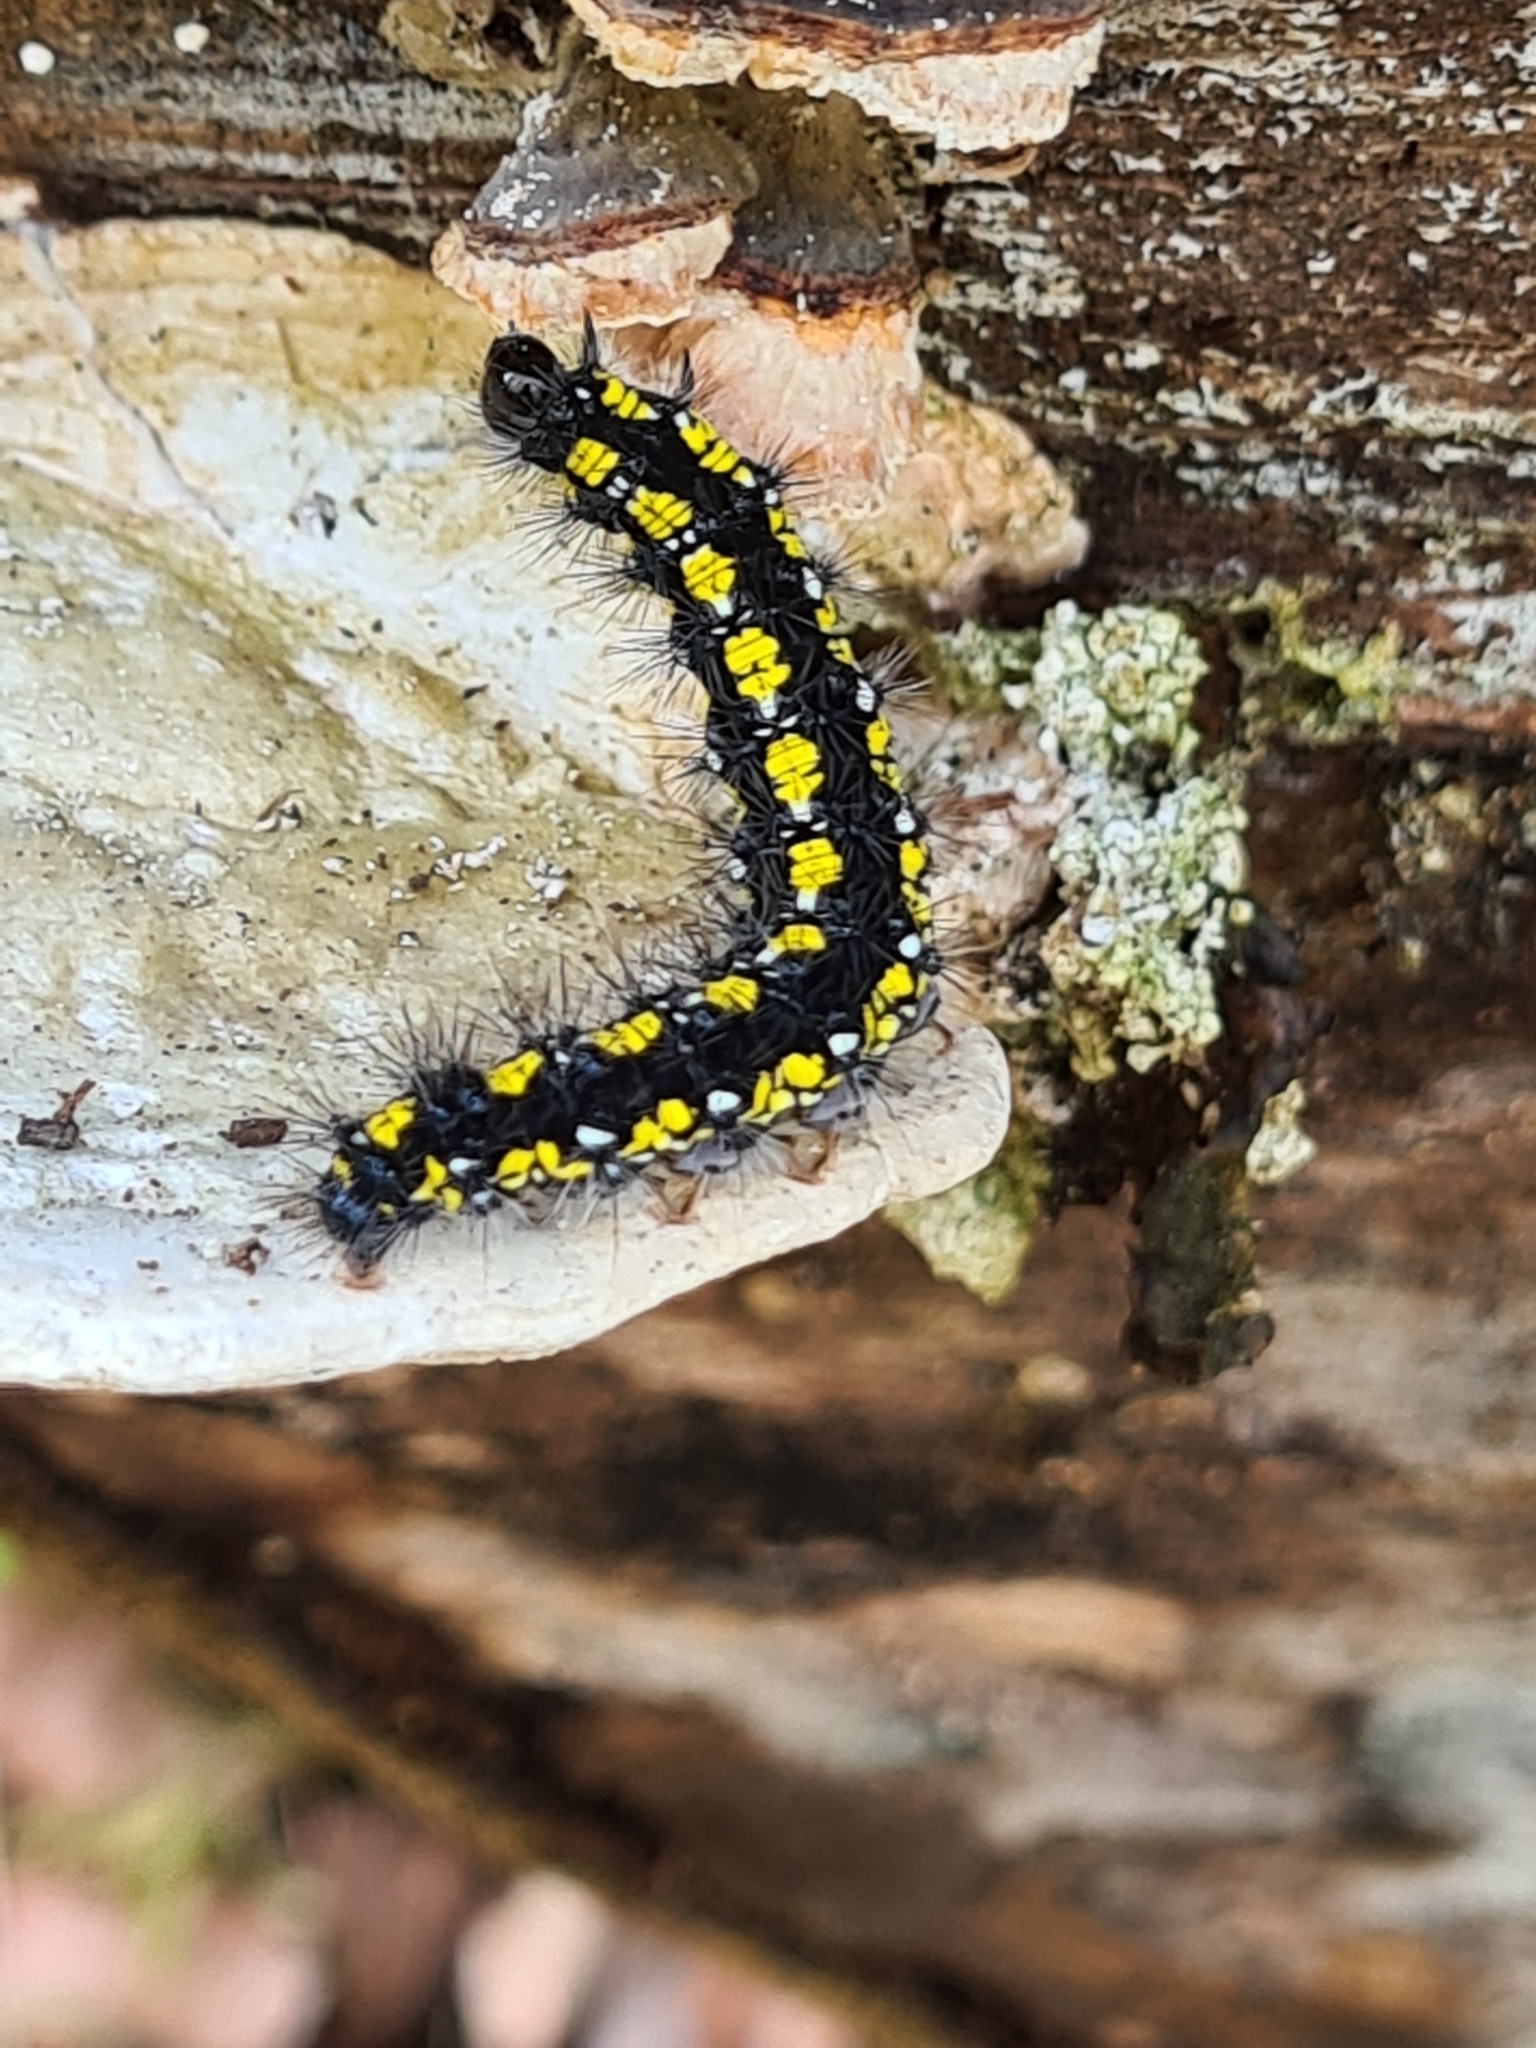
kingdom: Animalia
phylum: Arthropoda
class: Insecta
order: Lepidoptera
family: Erebidae
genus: Callimorpha
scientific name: Callimorpha dominula
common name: Scarlet tiger
